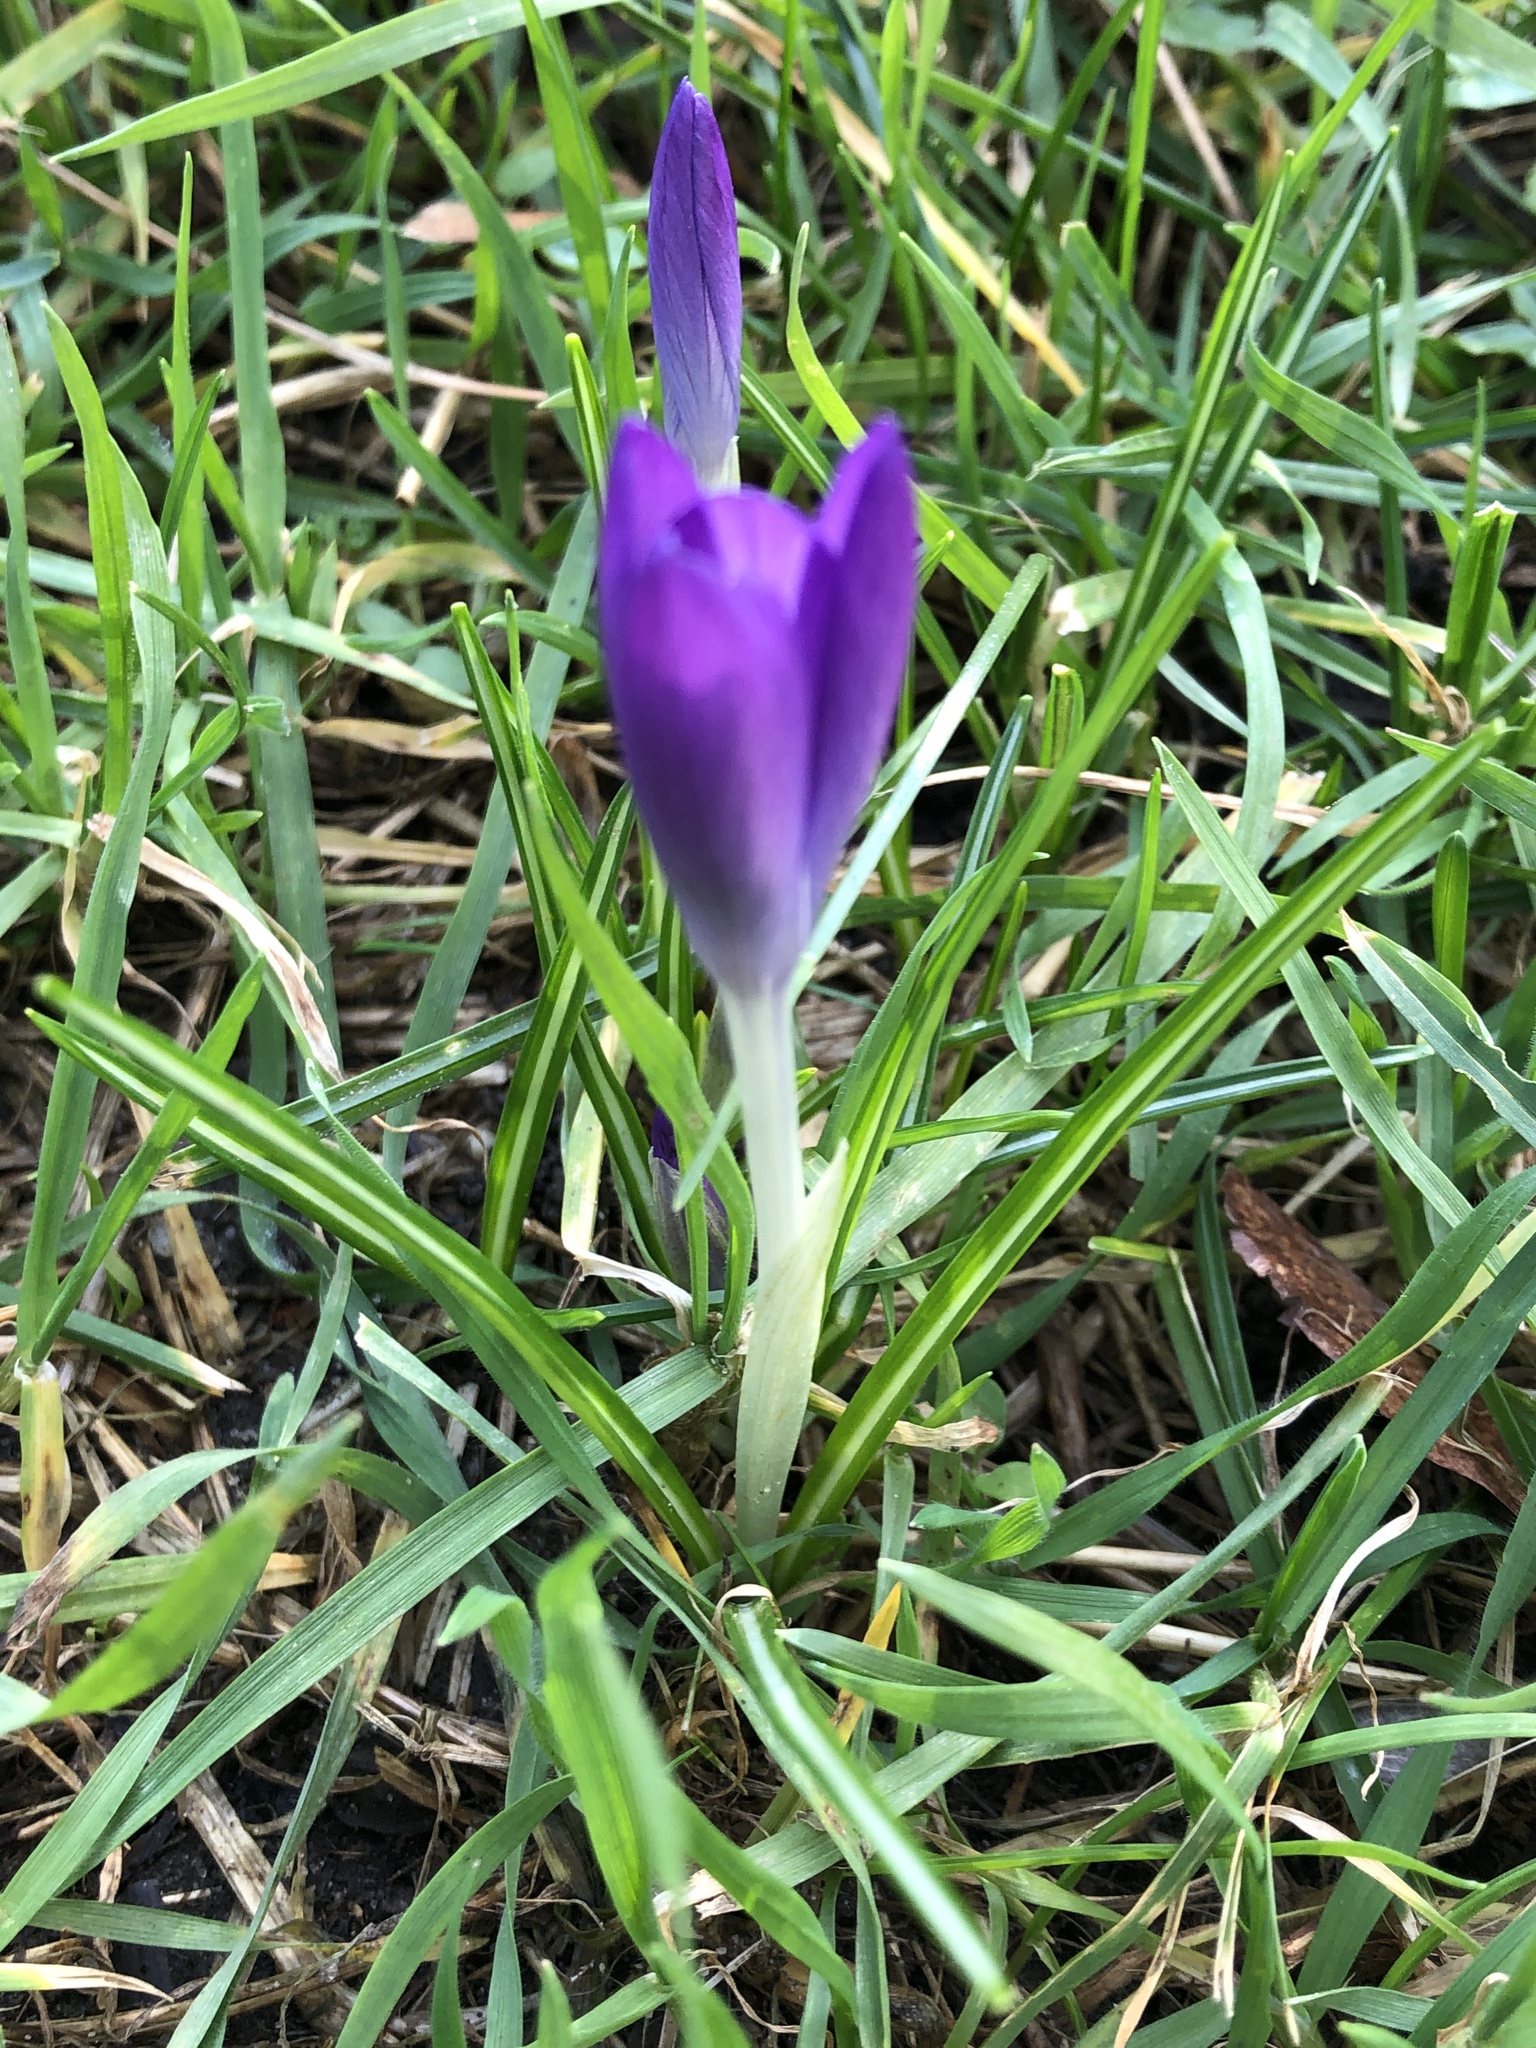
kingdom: Plantae
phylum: Tracheophyta
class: Liliopsida
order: Asparagales
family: Iridaceae
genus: Crocus
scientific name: Crocus tommasinianus
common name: Early crocus
